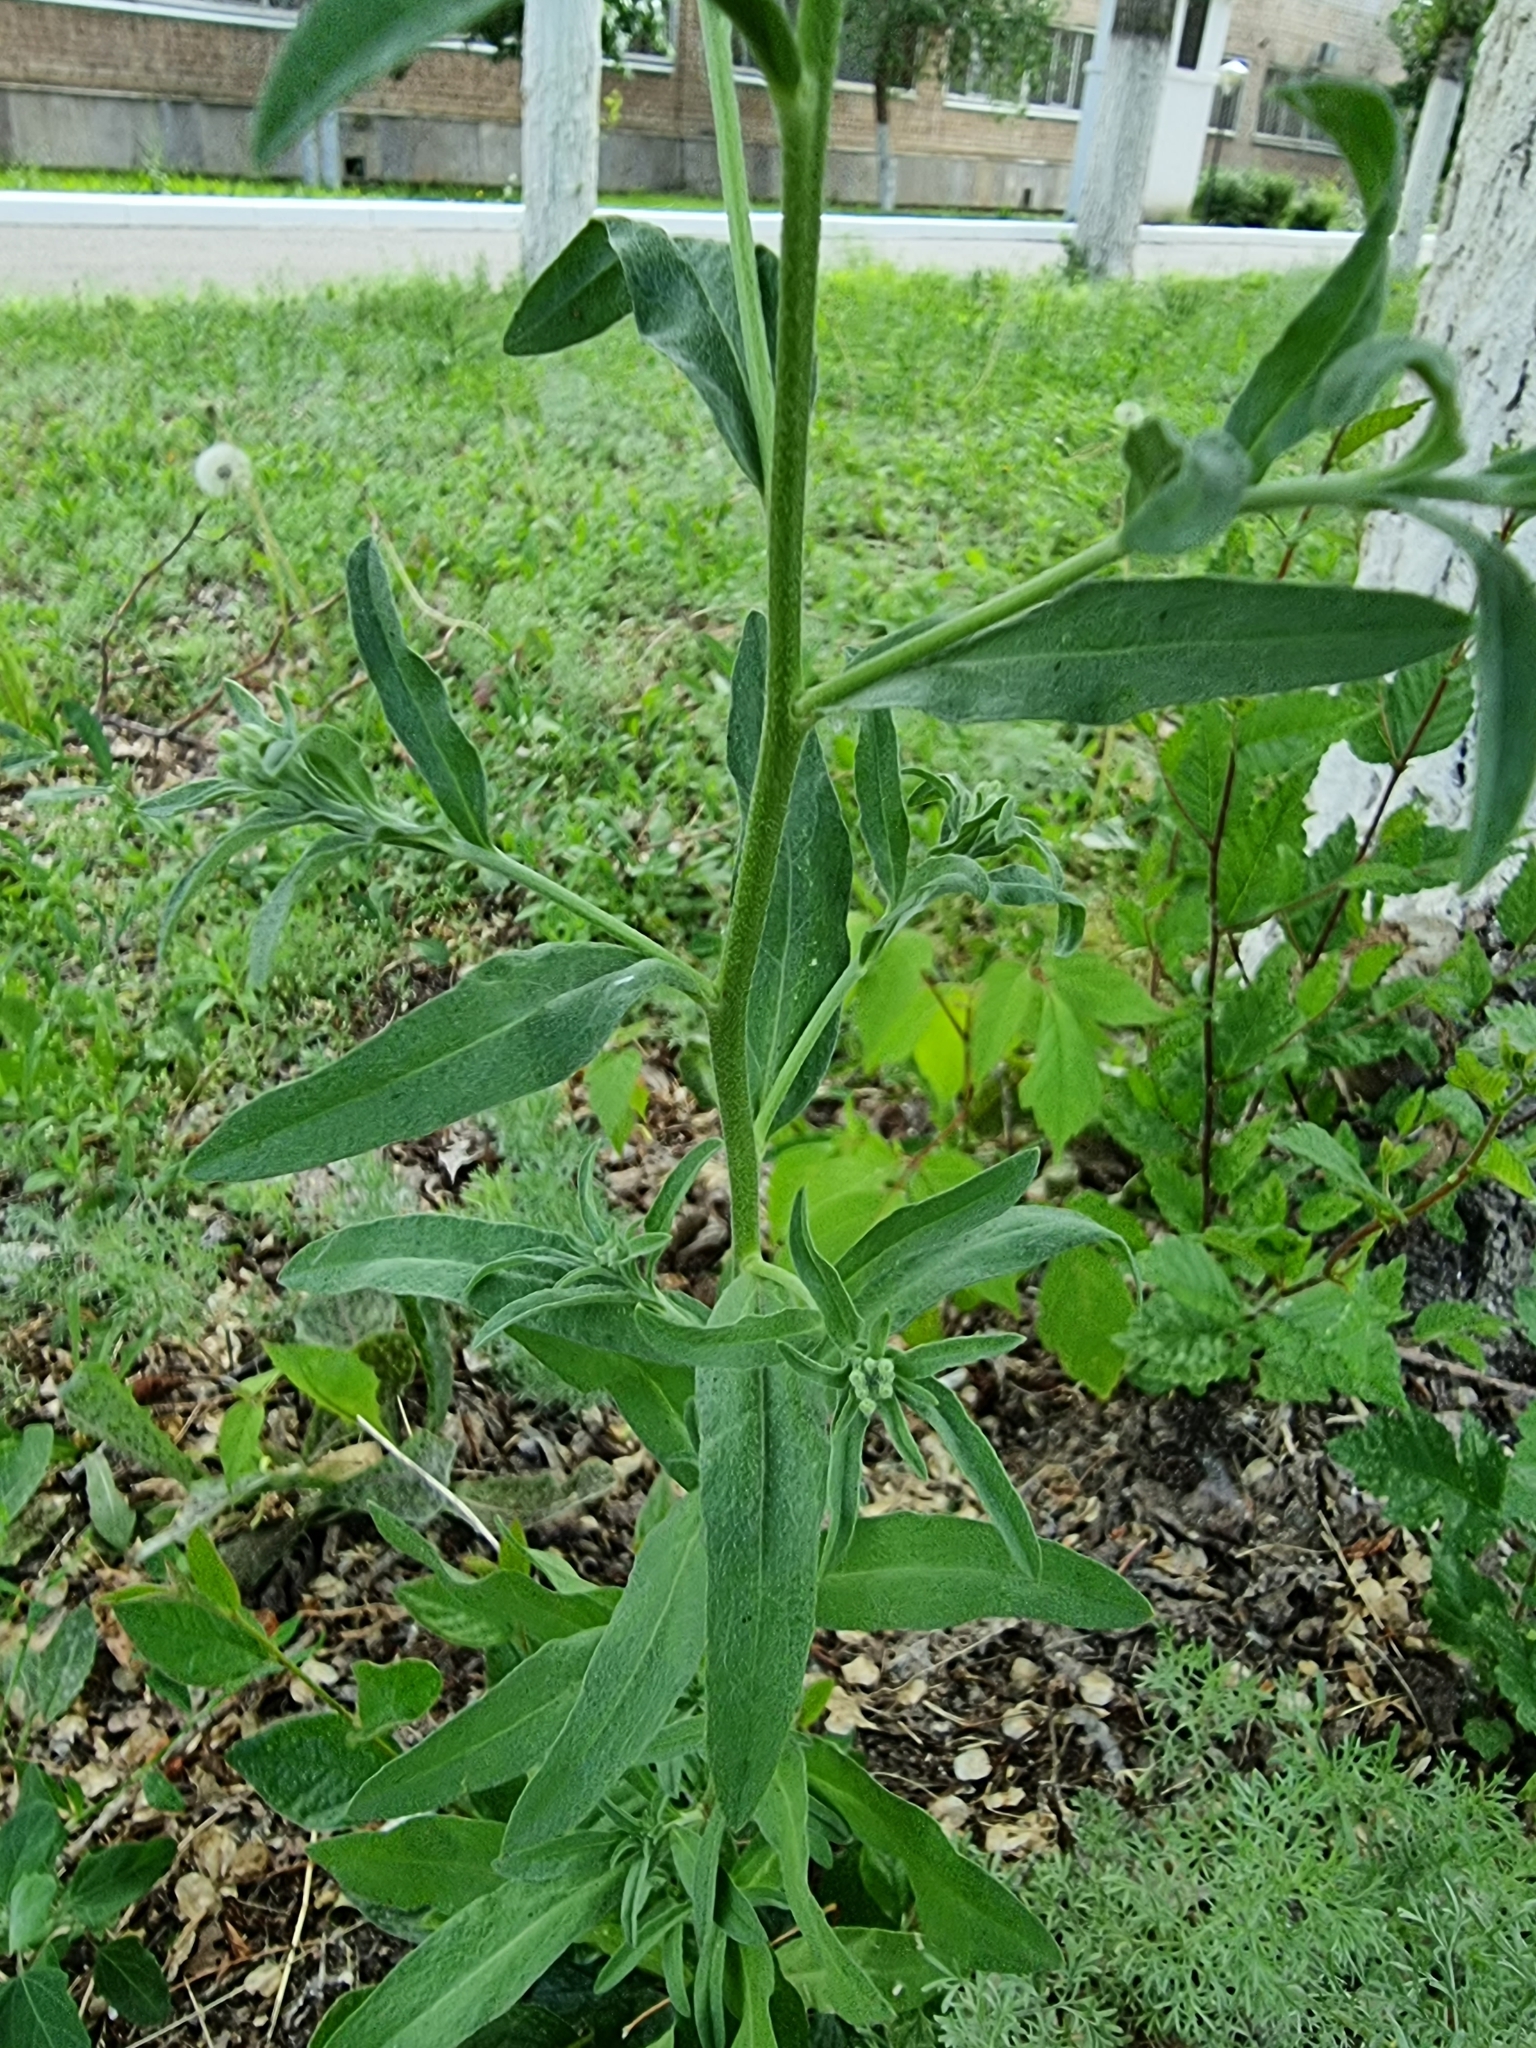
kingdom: Plantae
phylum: Tracheophyta
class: Magnoliopsida
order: Brassicales
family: Brassicaceae
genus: Berteroa
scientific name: Berteroa incana
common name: Hoary alison
